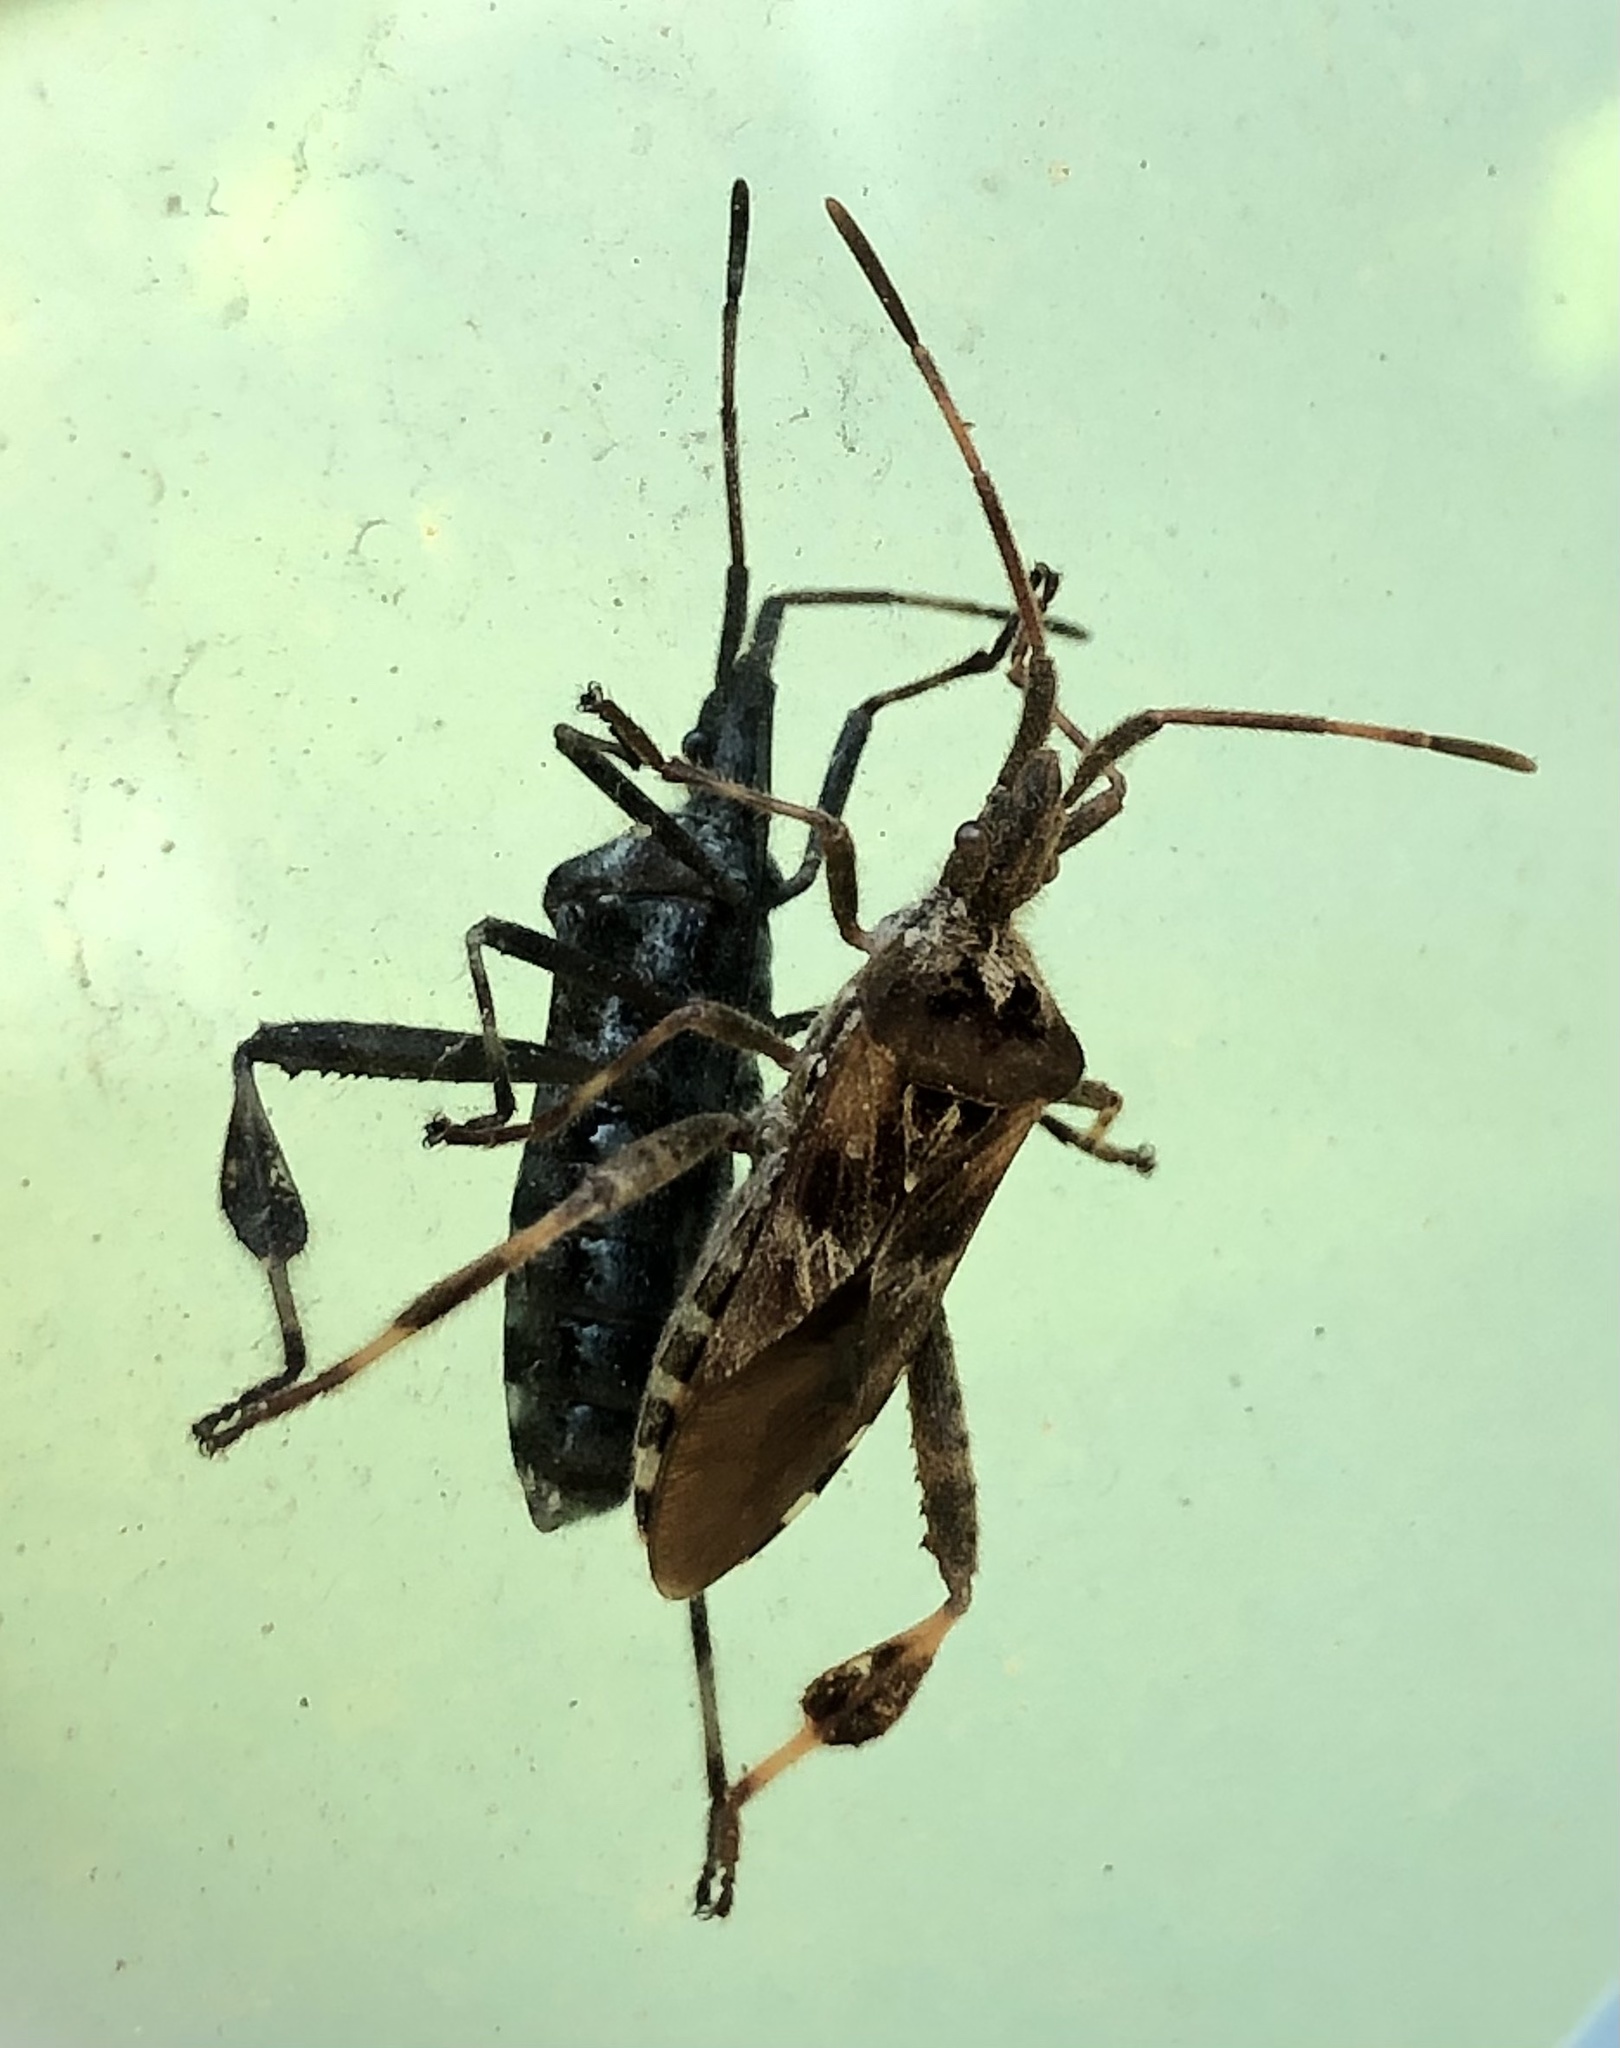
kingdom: Animalia
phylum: Arthropoda
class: Insecta
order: Hemiptera
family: Coreidae
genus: Leptoglossus
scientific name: Leptoglossus occidentalis
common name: Western conifer-seed bug
